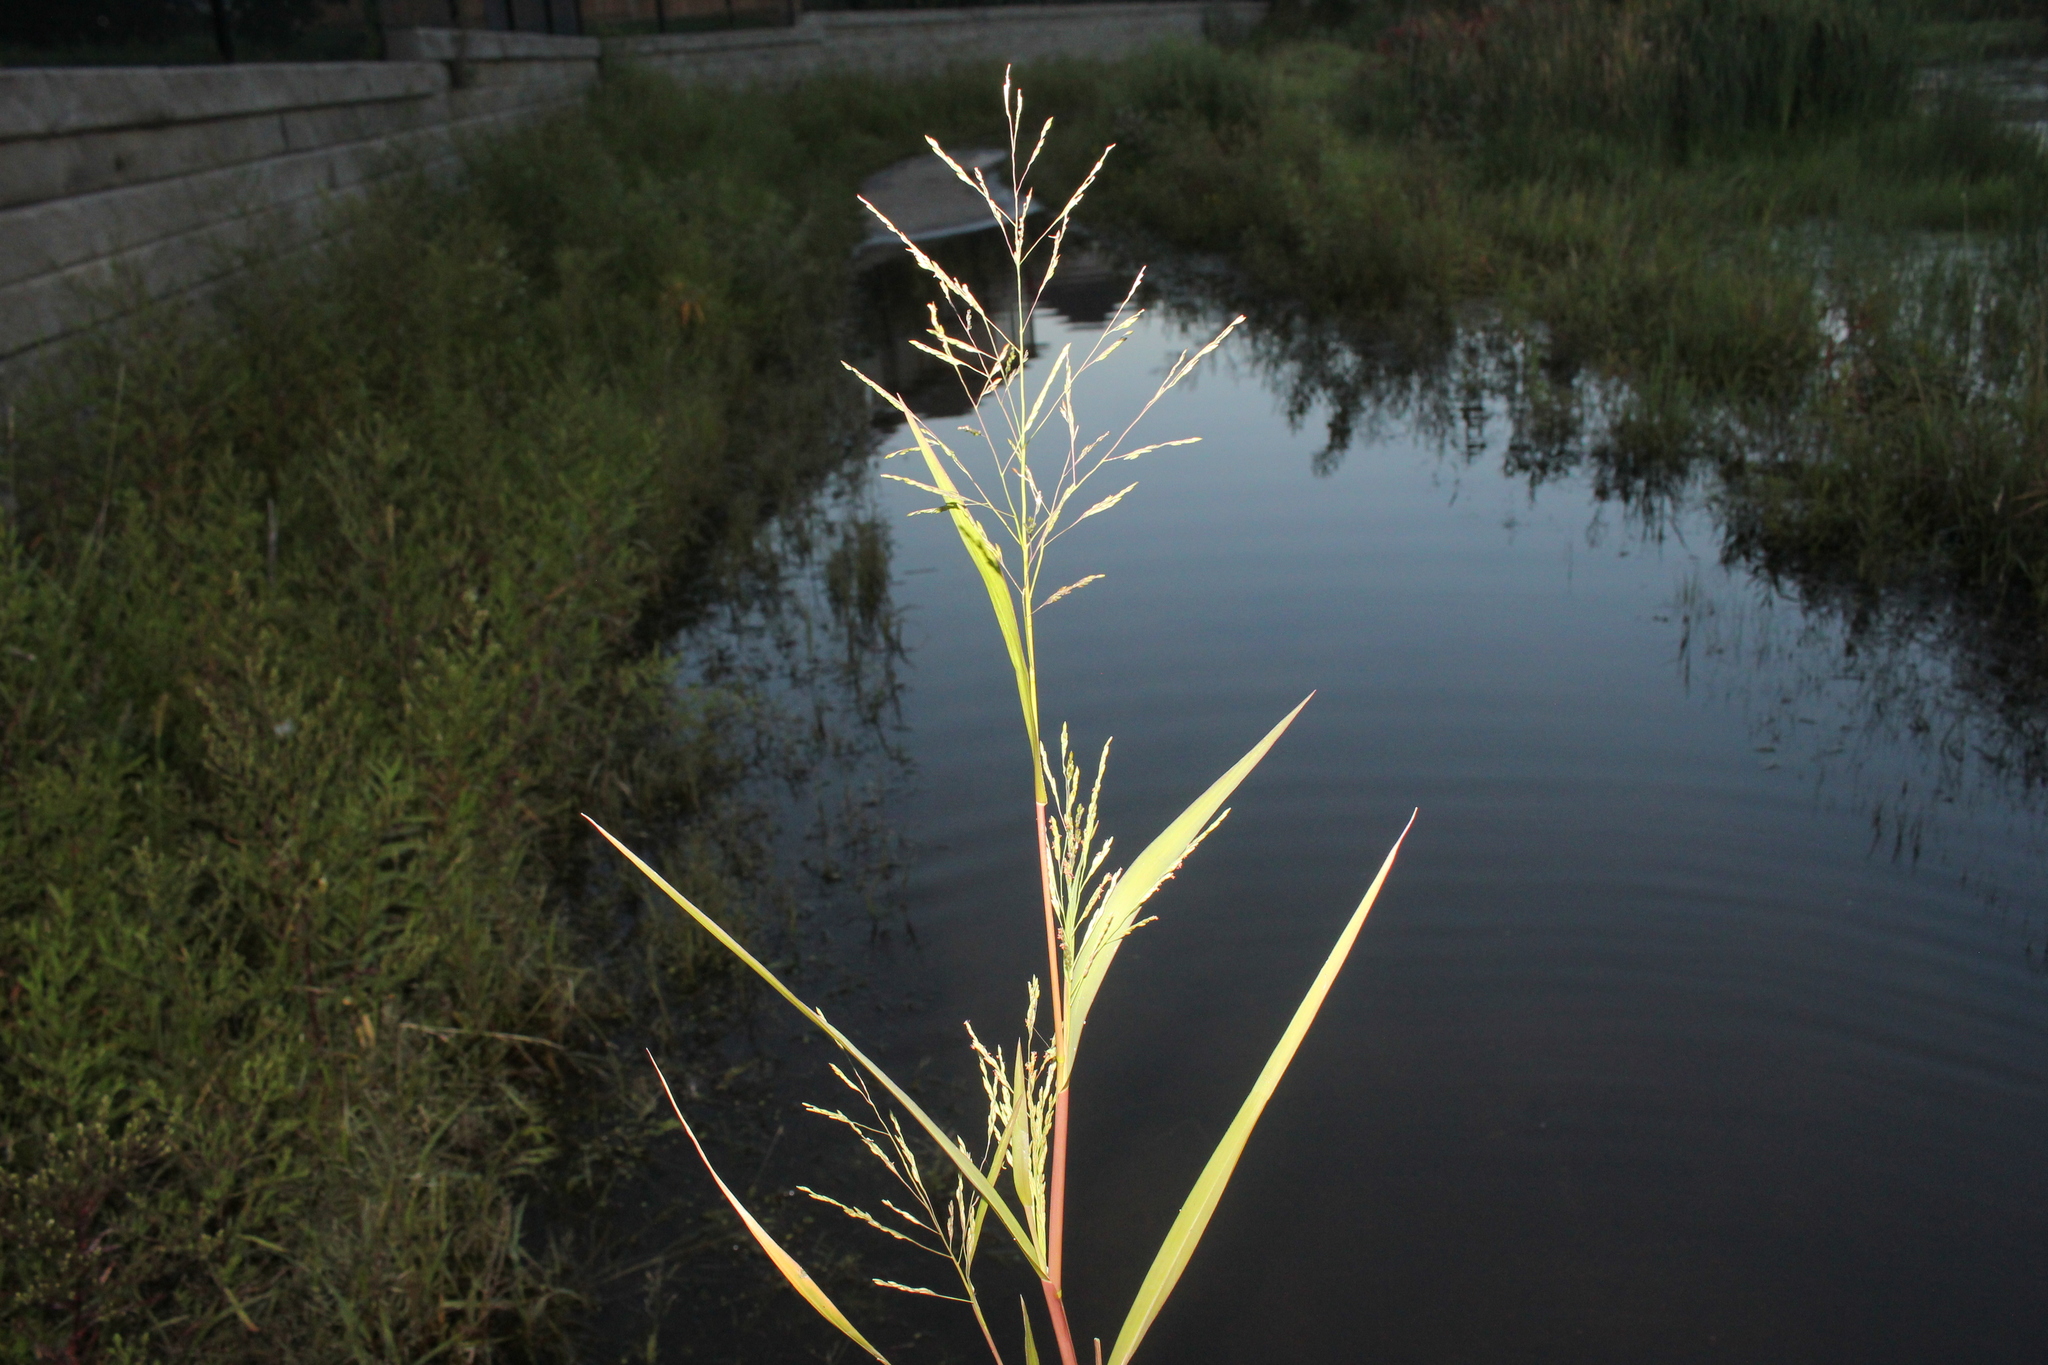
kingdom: Plantae
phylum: Tracheophyta
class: Liliopsida
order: Poales
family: Poaceae
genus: Panicum
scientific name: Panicum dichotomiflorum
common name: Autumn millet
